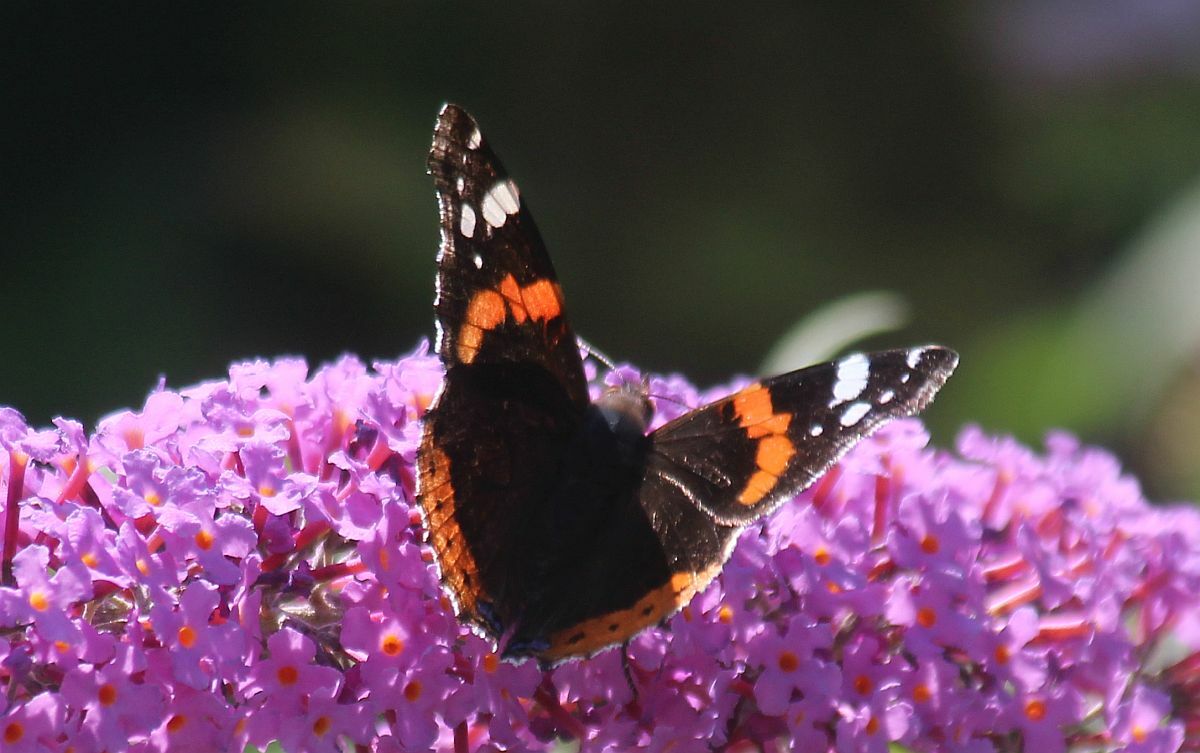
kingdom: Animalia
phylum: Arthropoda
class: Insecta
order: Lepidoptera
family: Nymphalidae
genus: Vanessa
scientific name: Vanessa atalanta
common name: Red admiral
